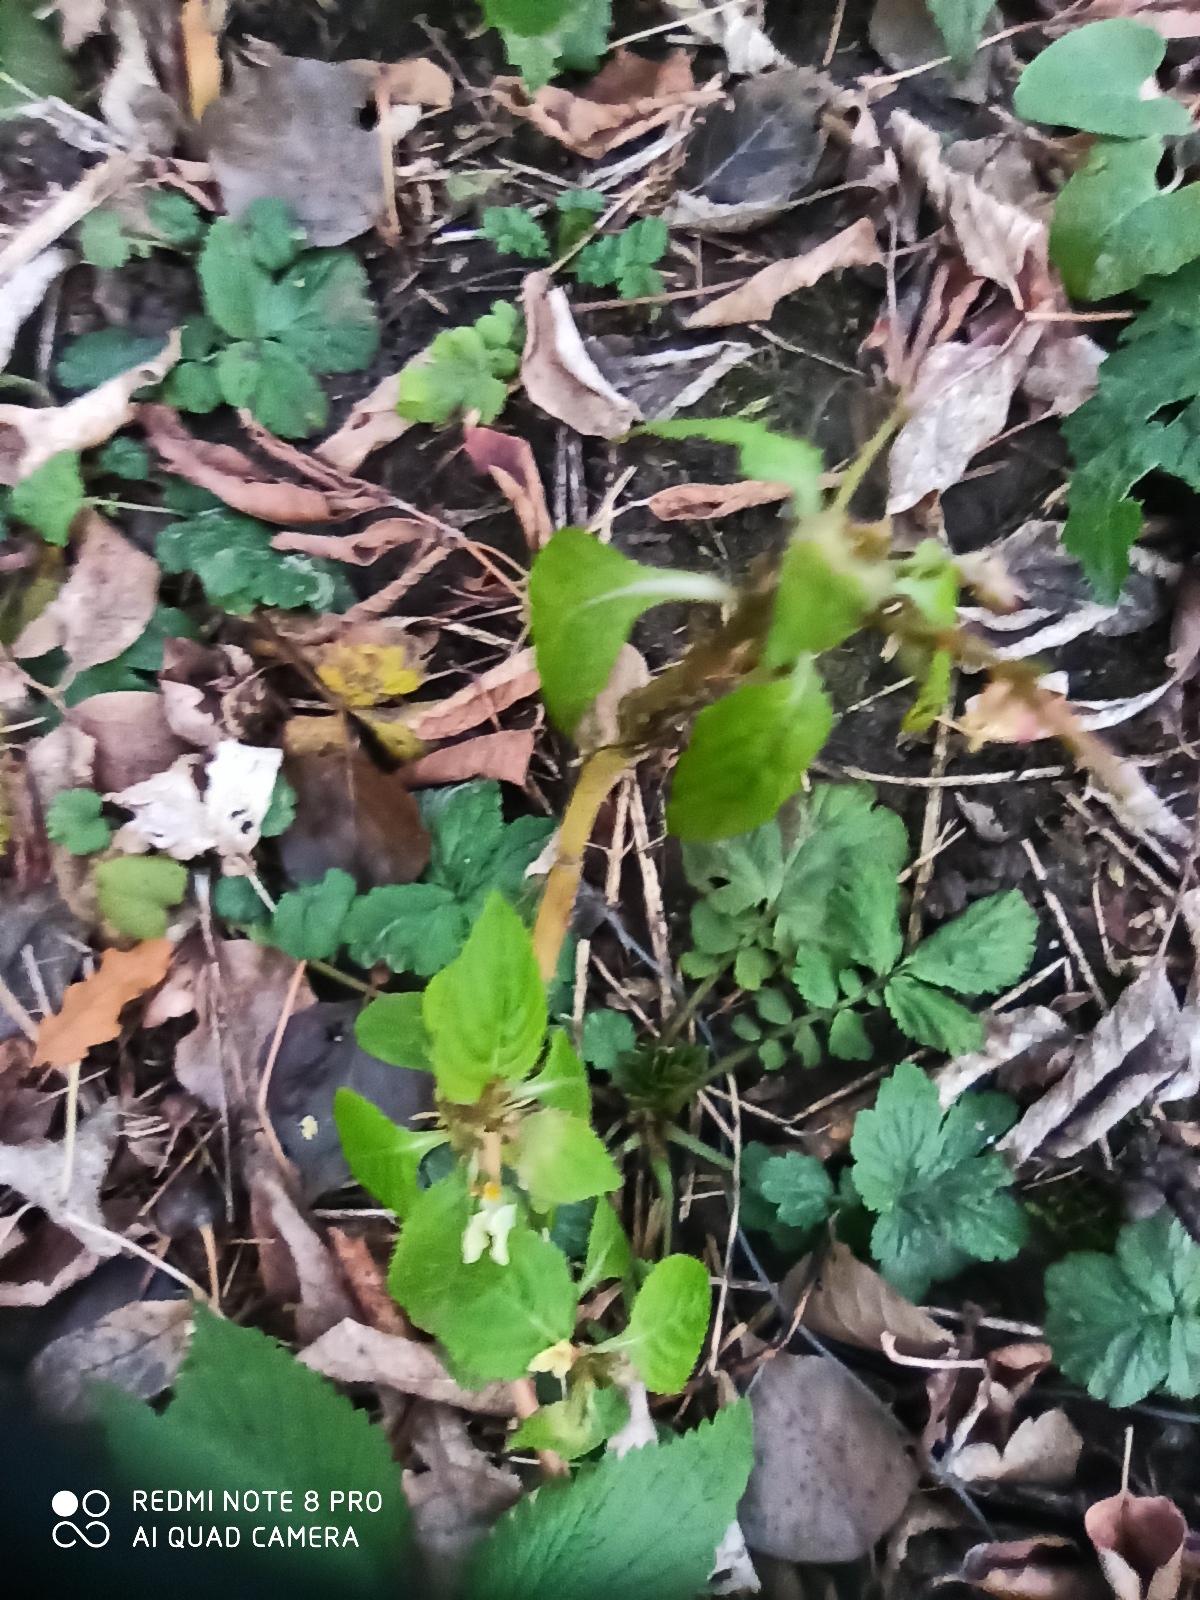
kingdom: Plantae
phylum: Tracheophyta
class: Magnoliopsida
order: Ericales
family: Balsaminaceae
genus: Impatiens
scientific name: Impatiens parviflora
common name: Small balsam
